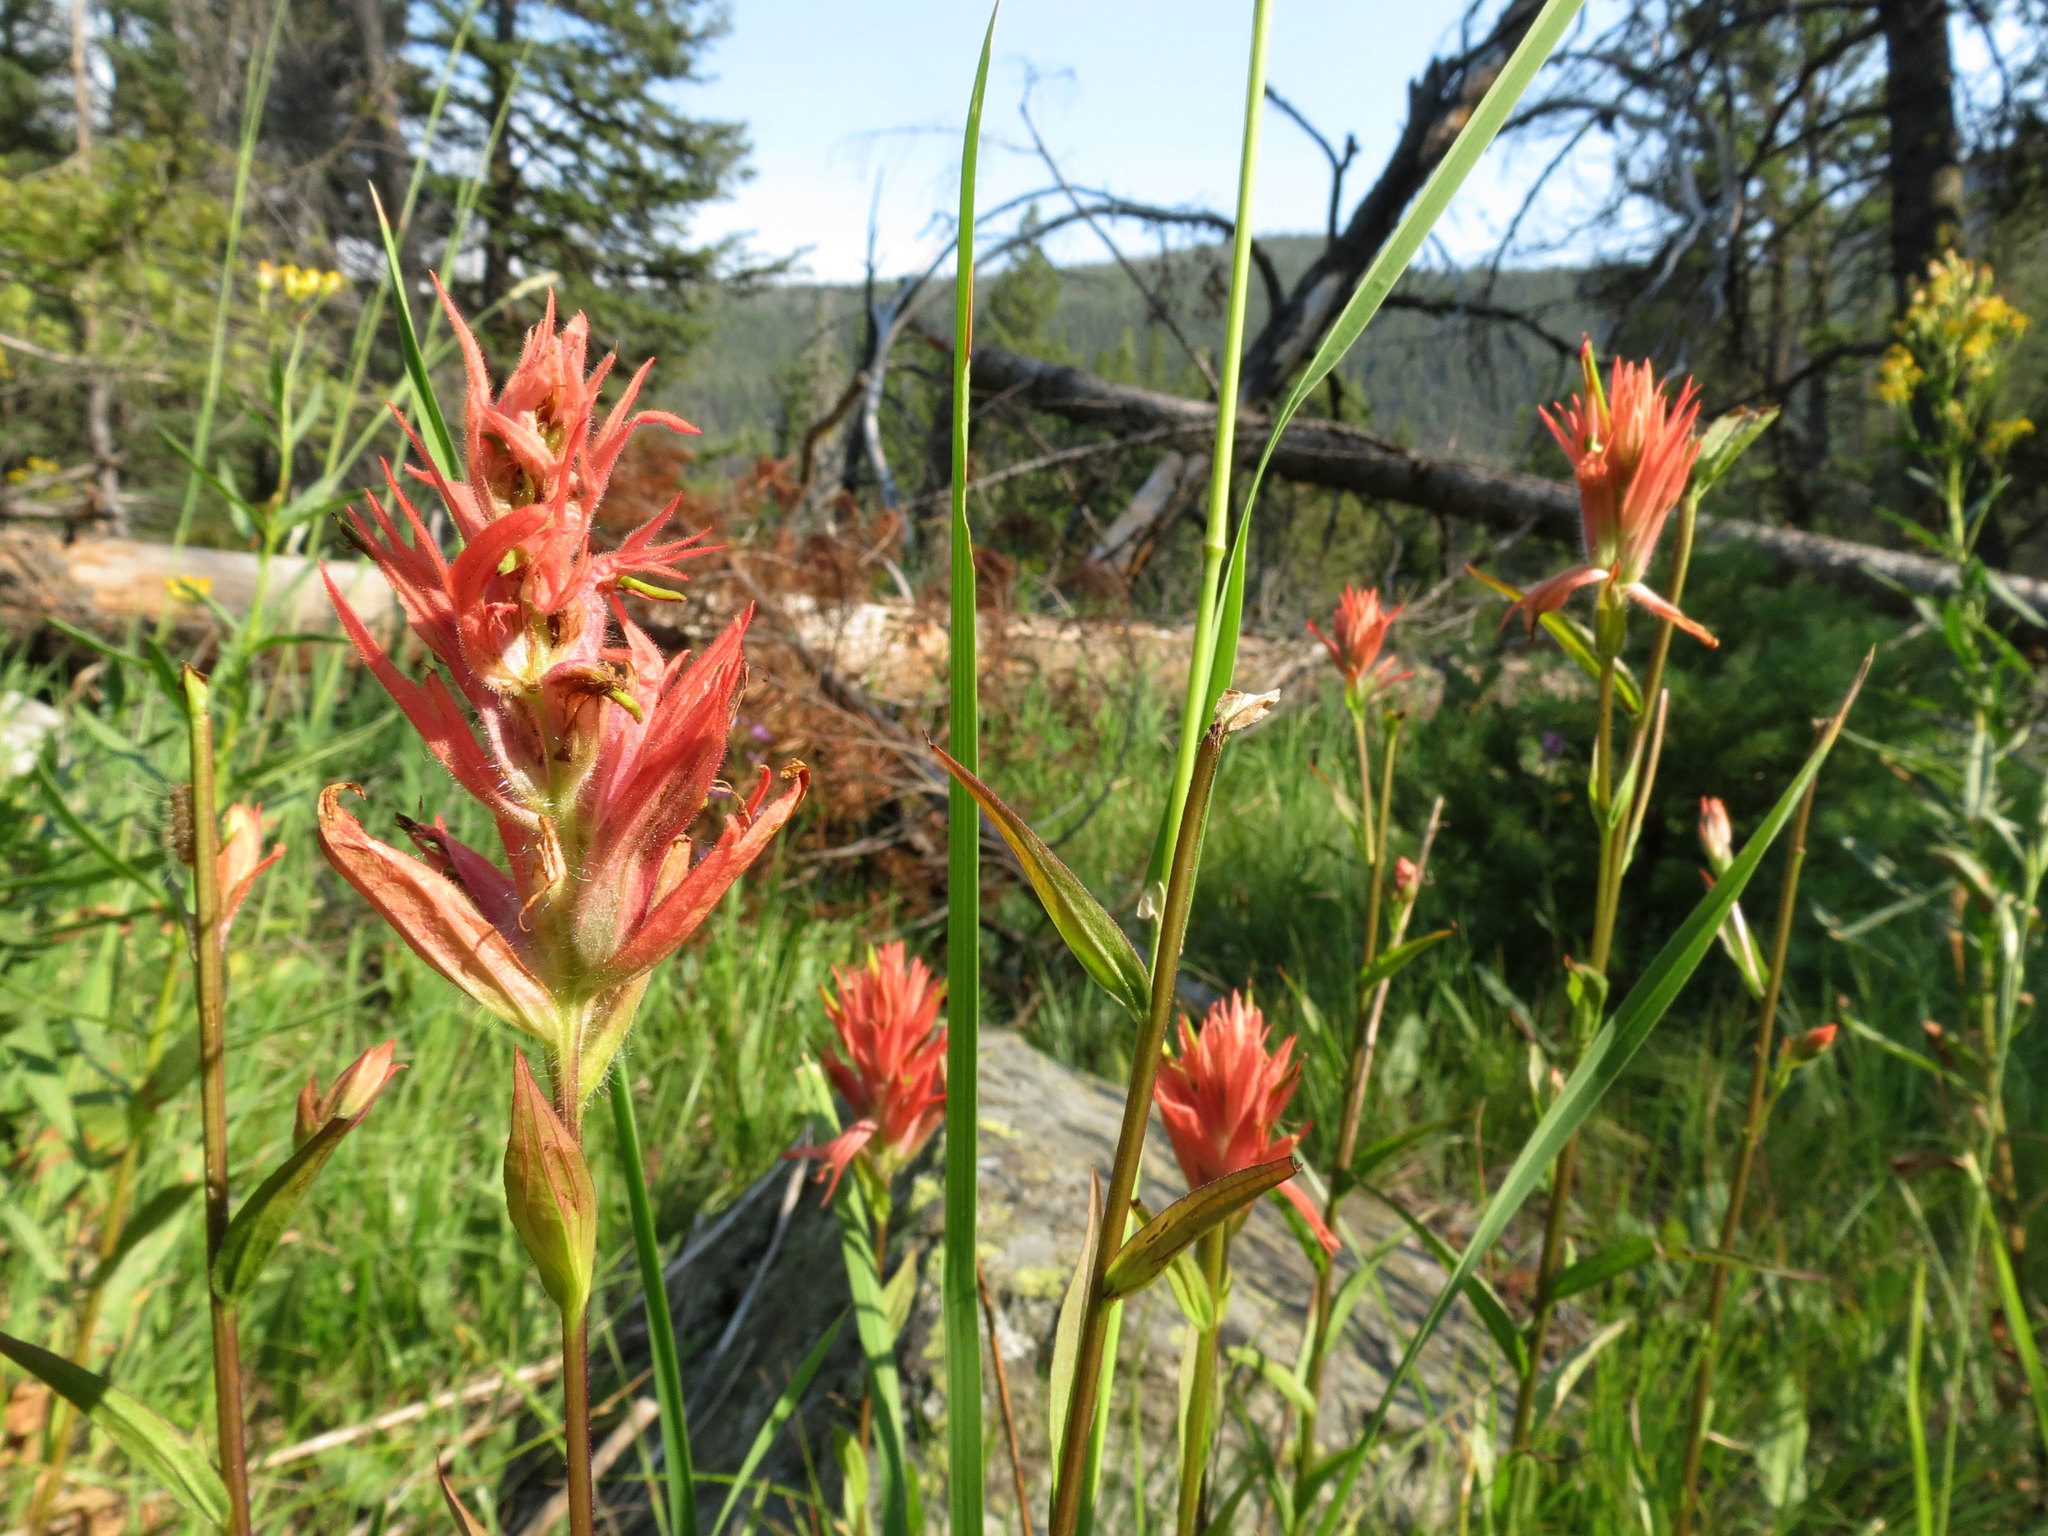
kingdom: Plantae
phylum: Tracheophyta
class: Magnoliopsida
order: Lamiales
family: Orobanchaceae
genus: Castilleja
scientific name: Castilleja miniata
